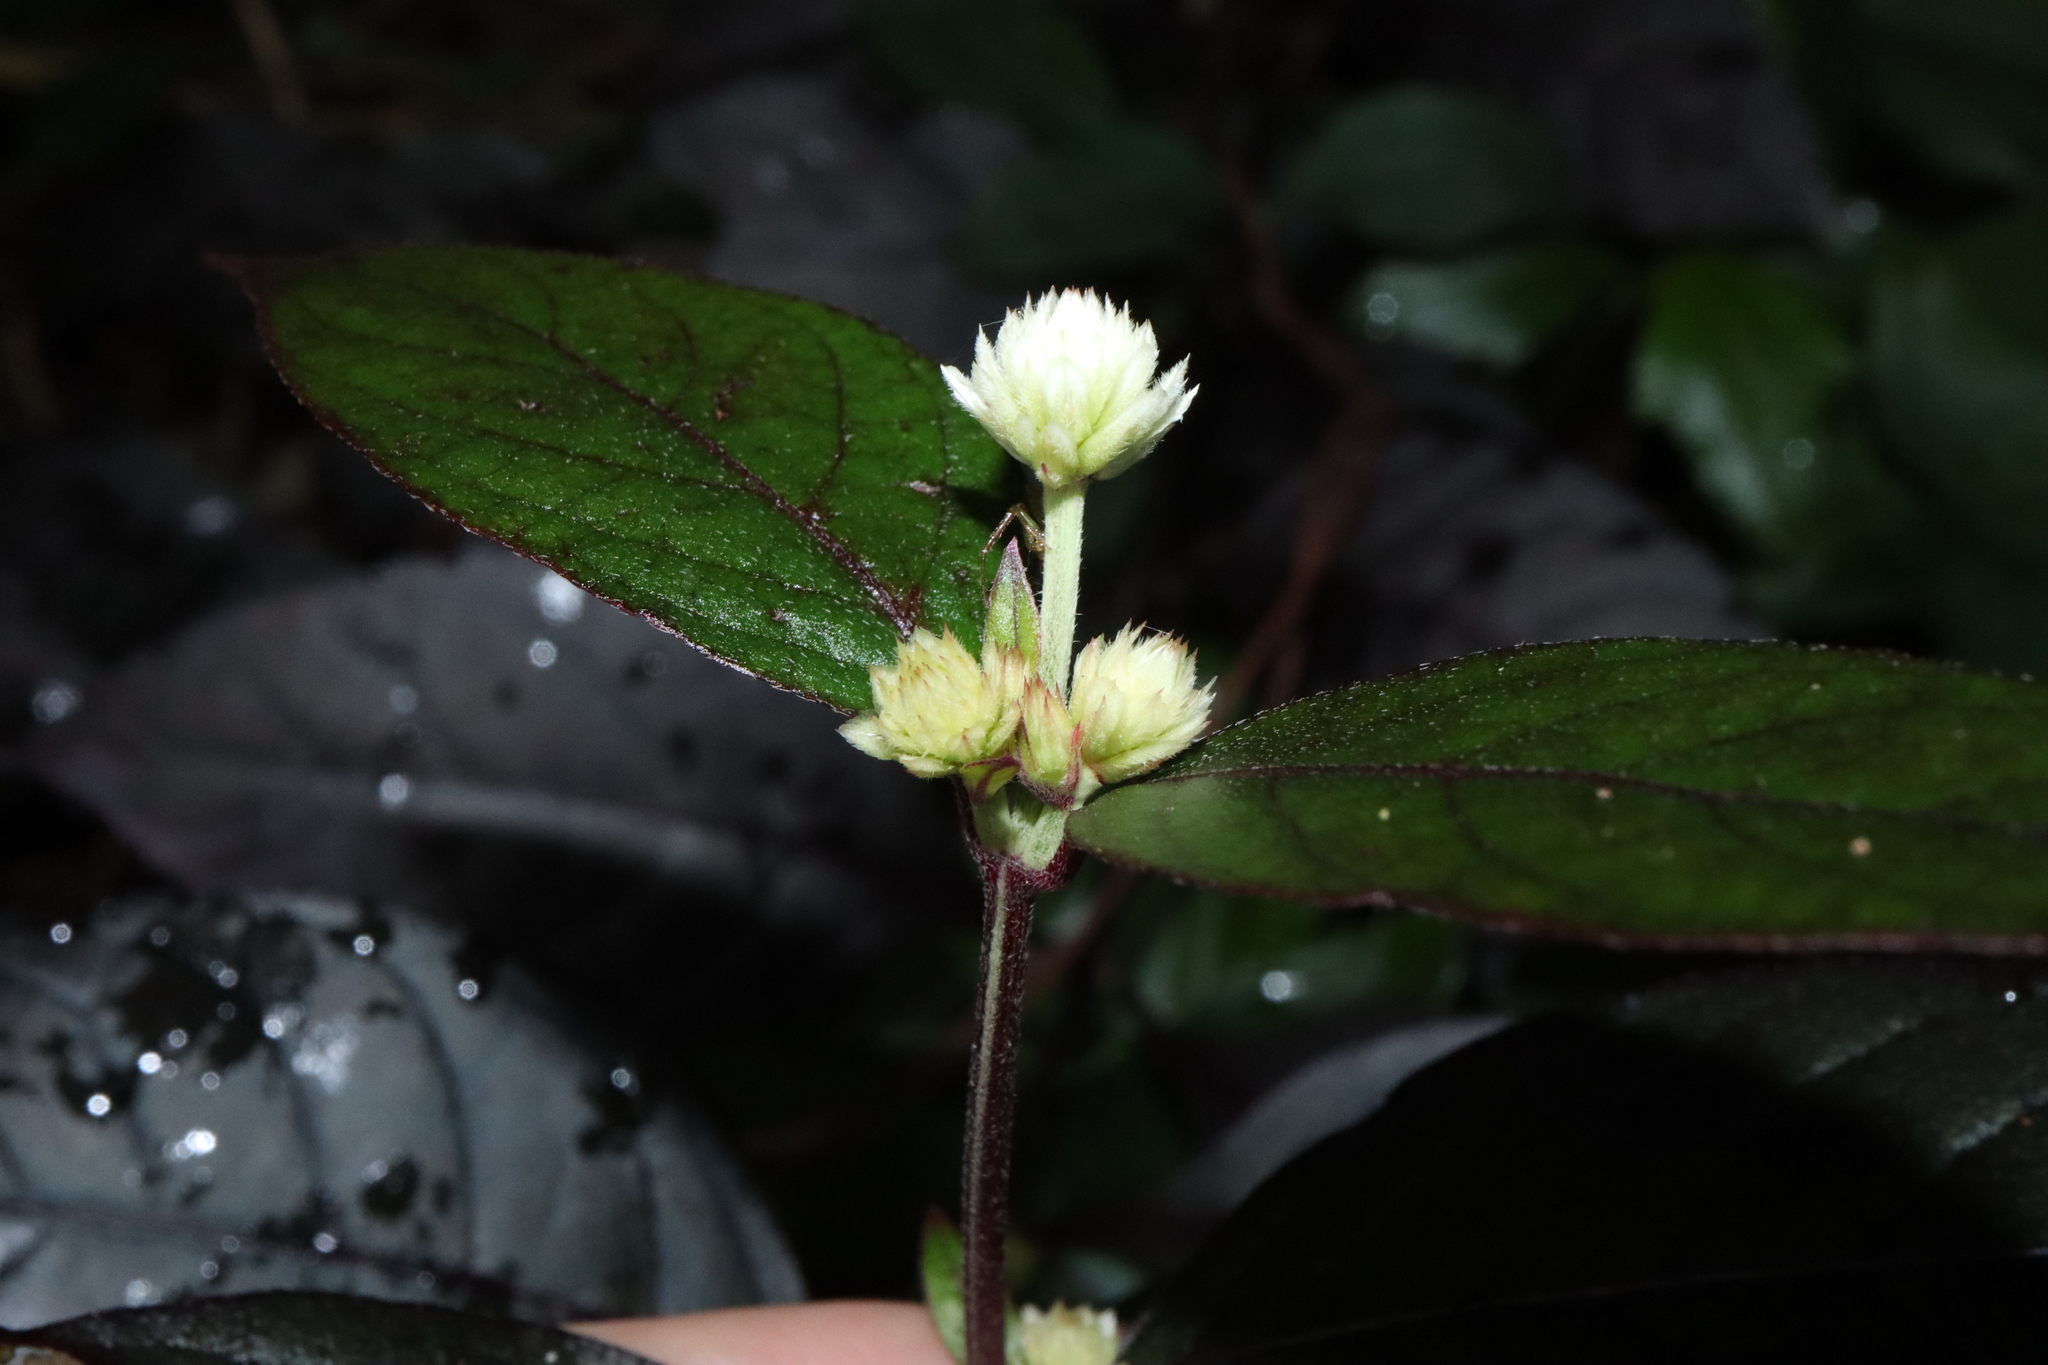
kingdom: Plantae
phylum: Tracheophyta
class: Magnoliopsida
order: Caryophyllales
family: Amaranthaceae
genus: Alternanthera
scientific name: Alternanthera brasiliana
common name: Brazilian joyweed
